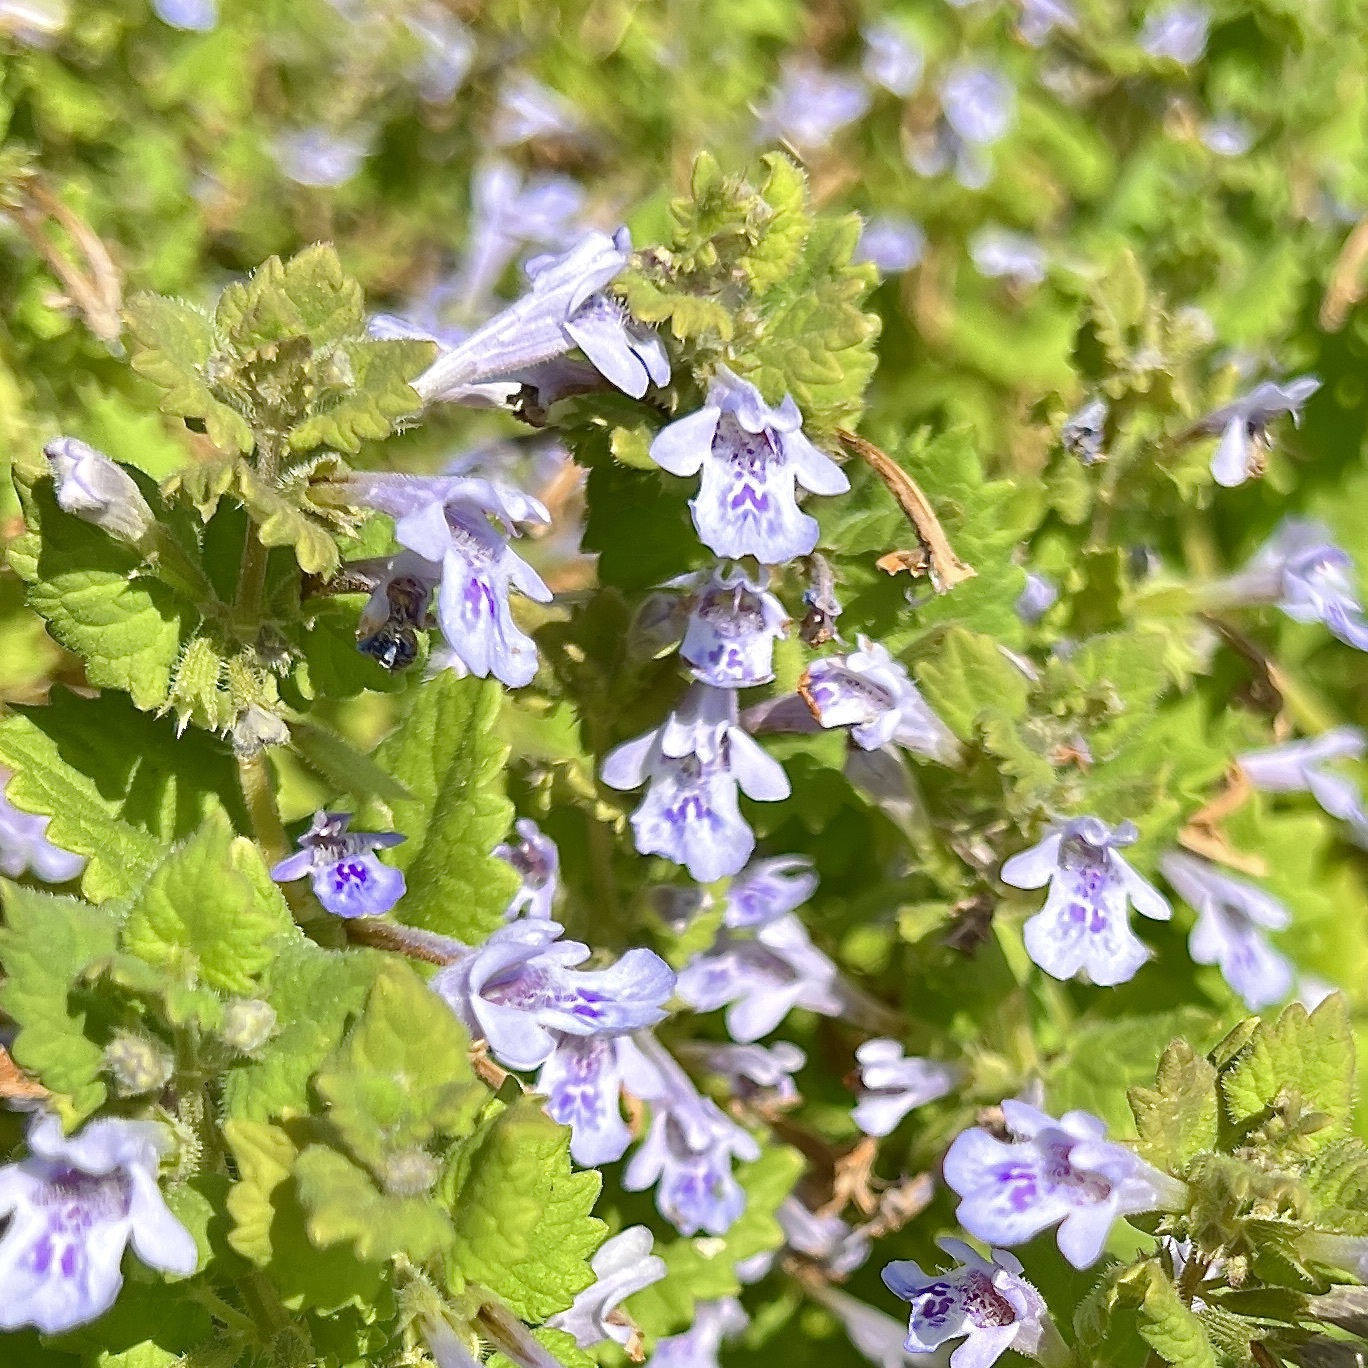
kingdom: Plantae
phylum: Tracheophyta
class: Magnoliopsida
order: Lamiales
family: Lamiaceae
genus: Glechoma
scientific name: Glechoma hederacea
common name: Ground ivy
